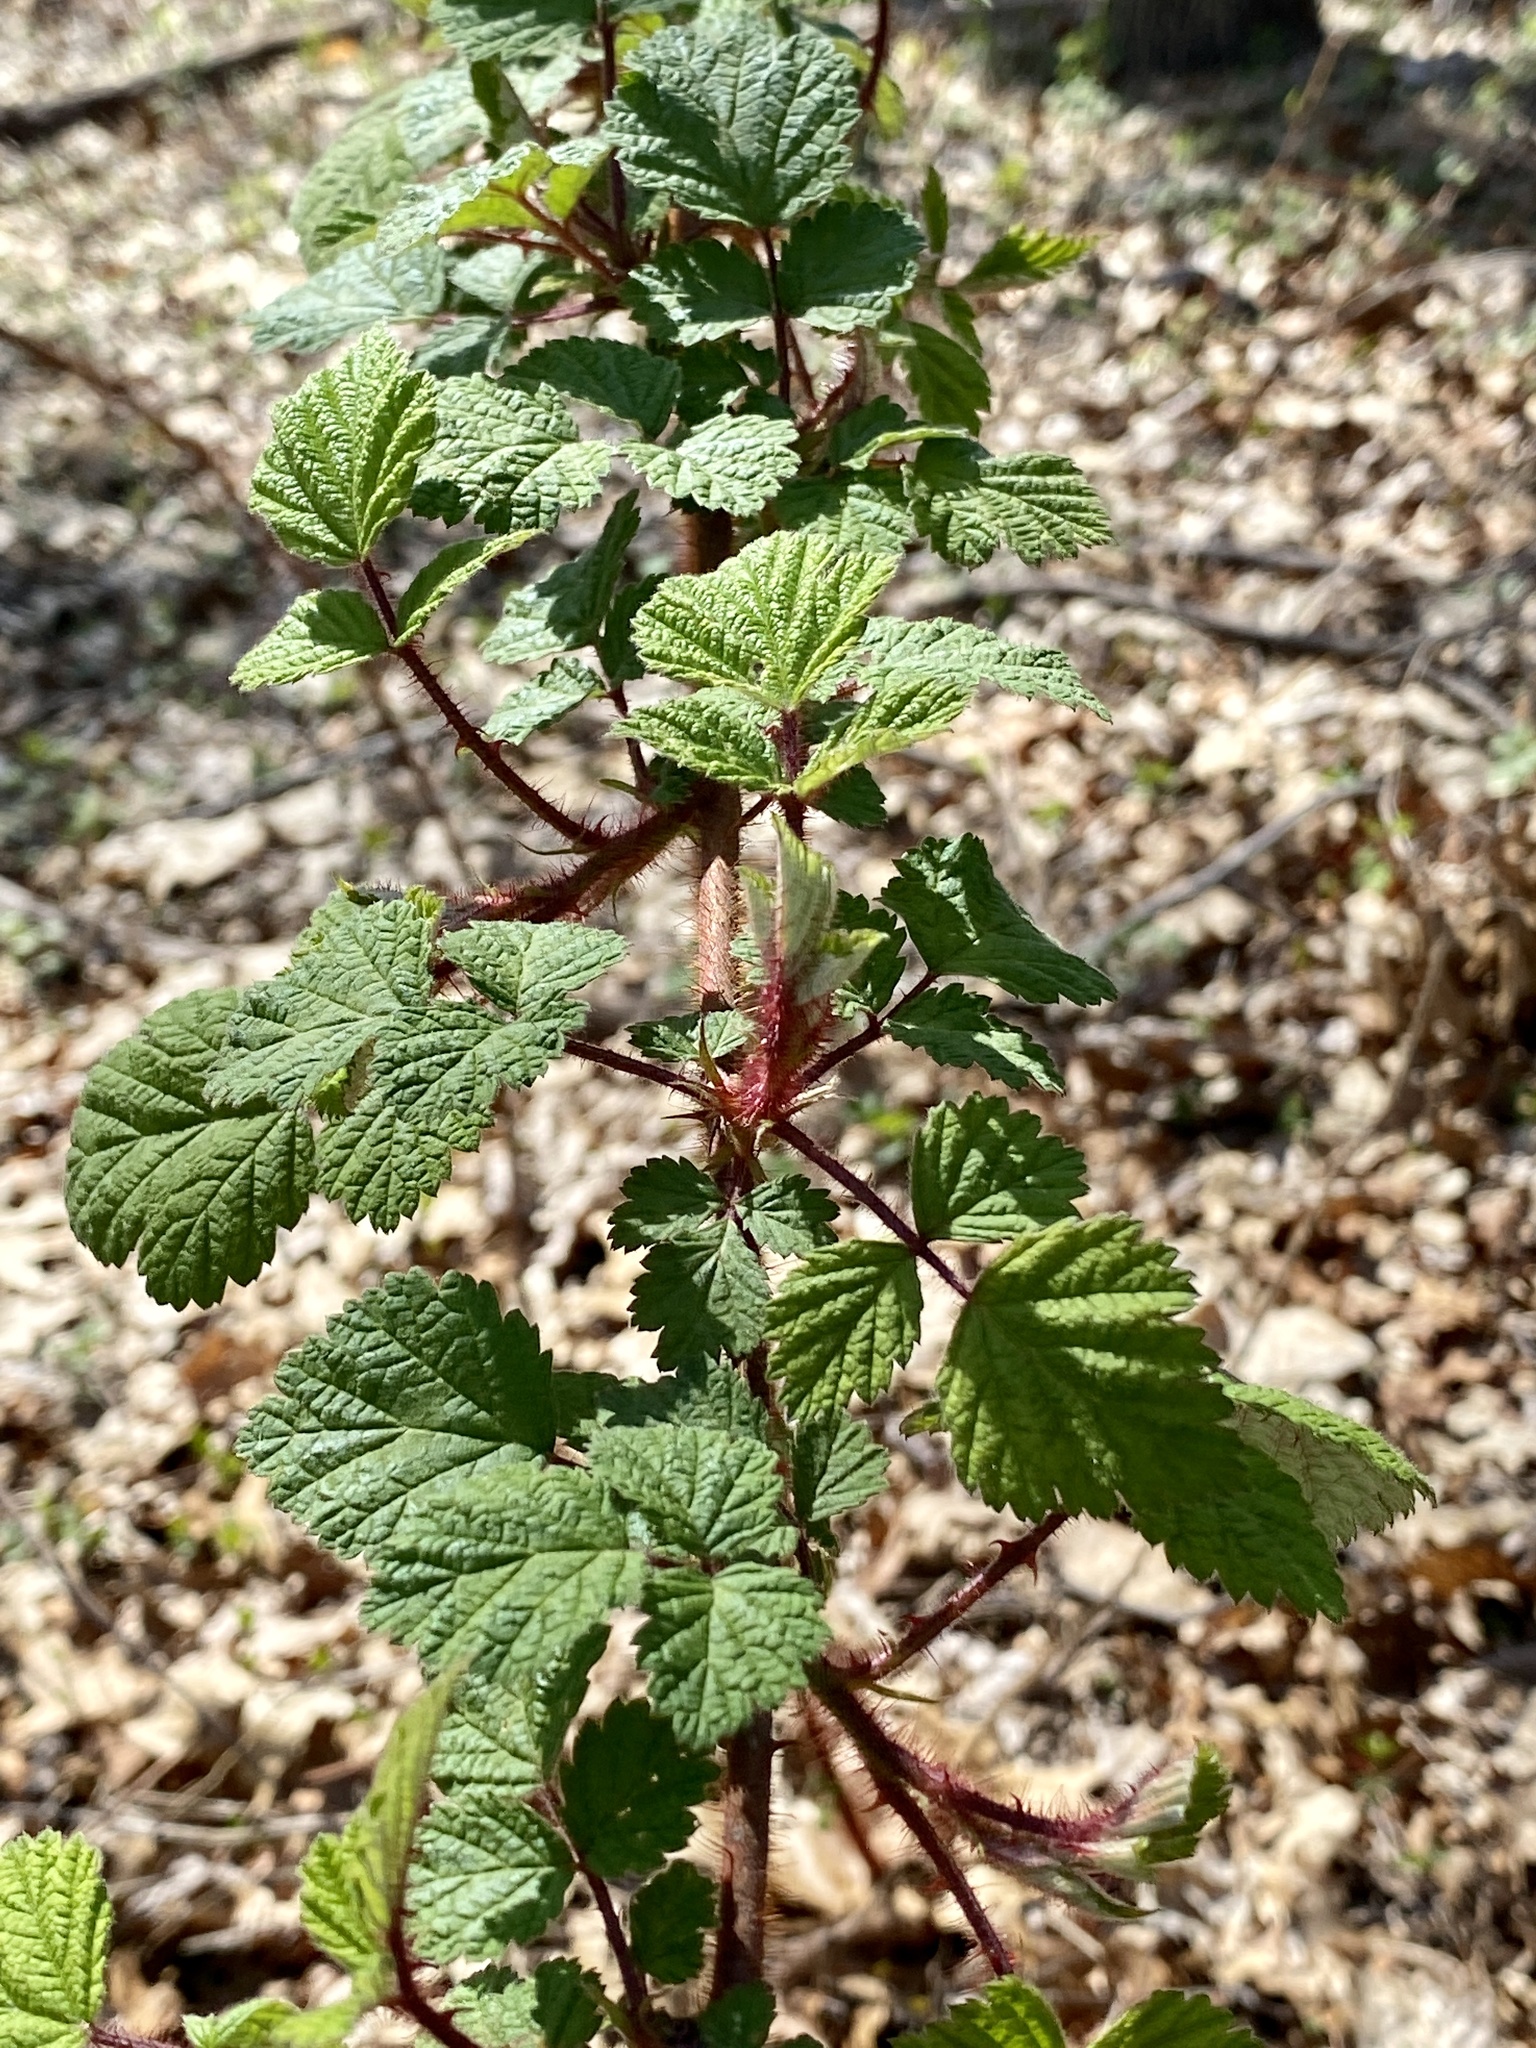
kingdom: Plantae
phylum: Tracheophyta
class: Magnoliopsida
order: Rosales
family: Rosaceae
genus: Rubus
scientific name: Rubus phoenicolasius
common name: Japanese wineberry
